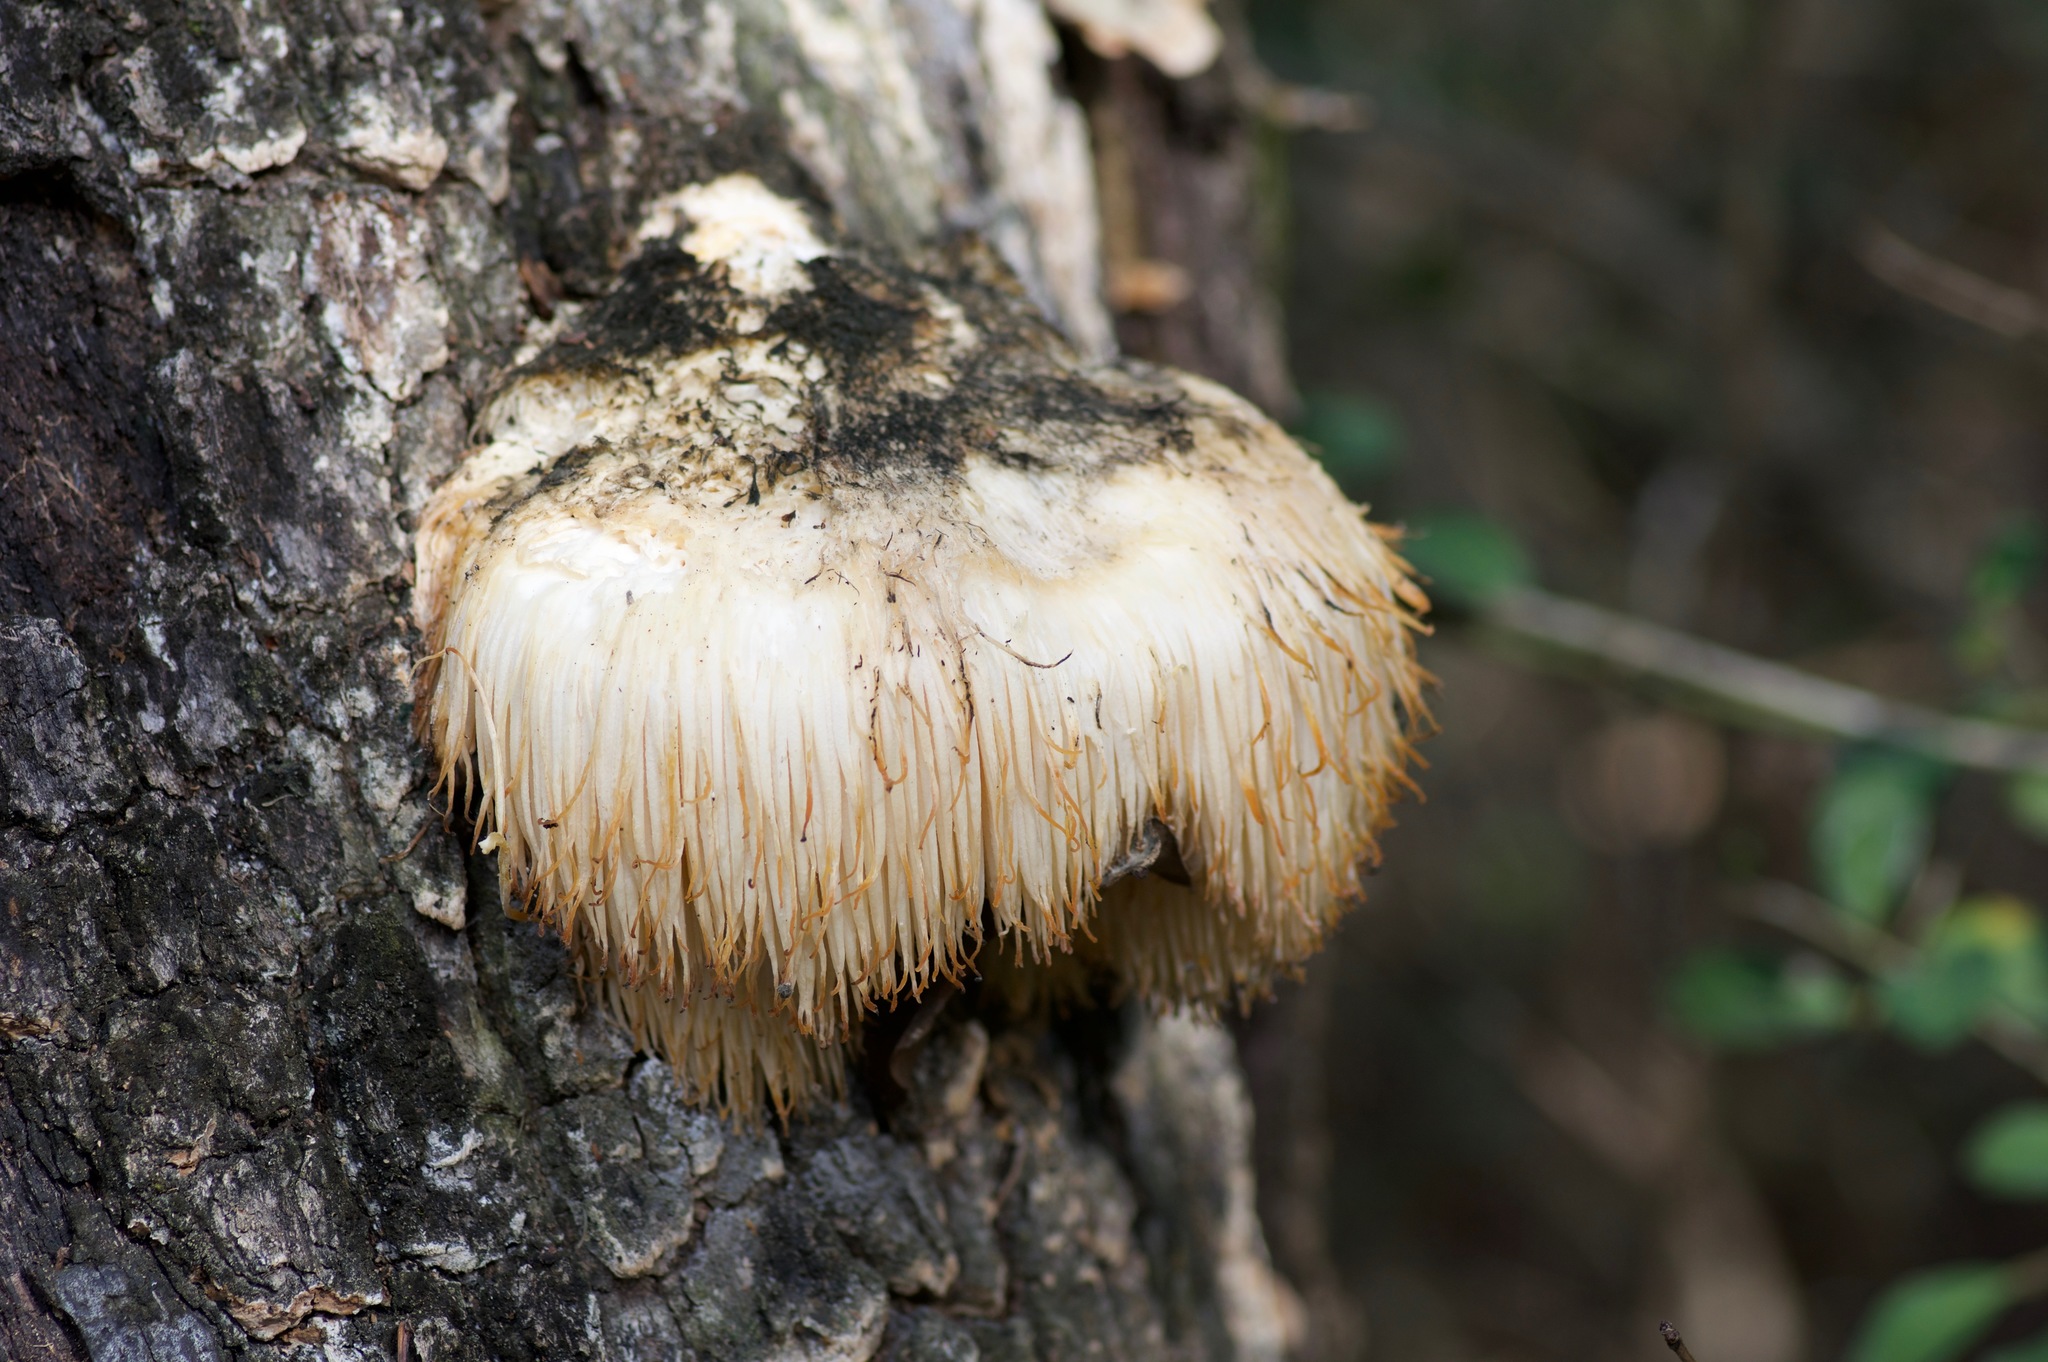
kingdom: Fungi
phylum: Basidiomycota
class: Agaricomycetes
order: Russulales
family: Hericiaceae
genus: Hericium
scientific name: Hericium erinaceus
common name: Bearded tooth
